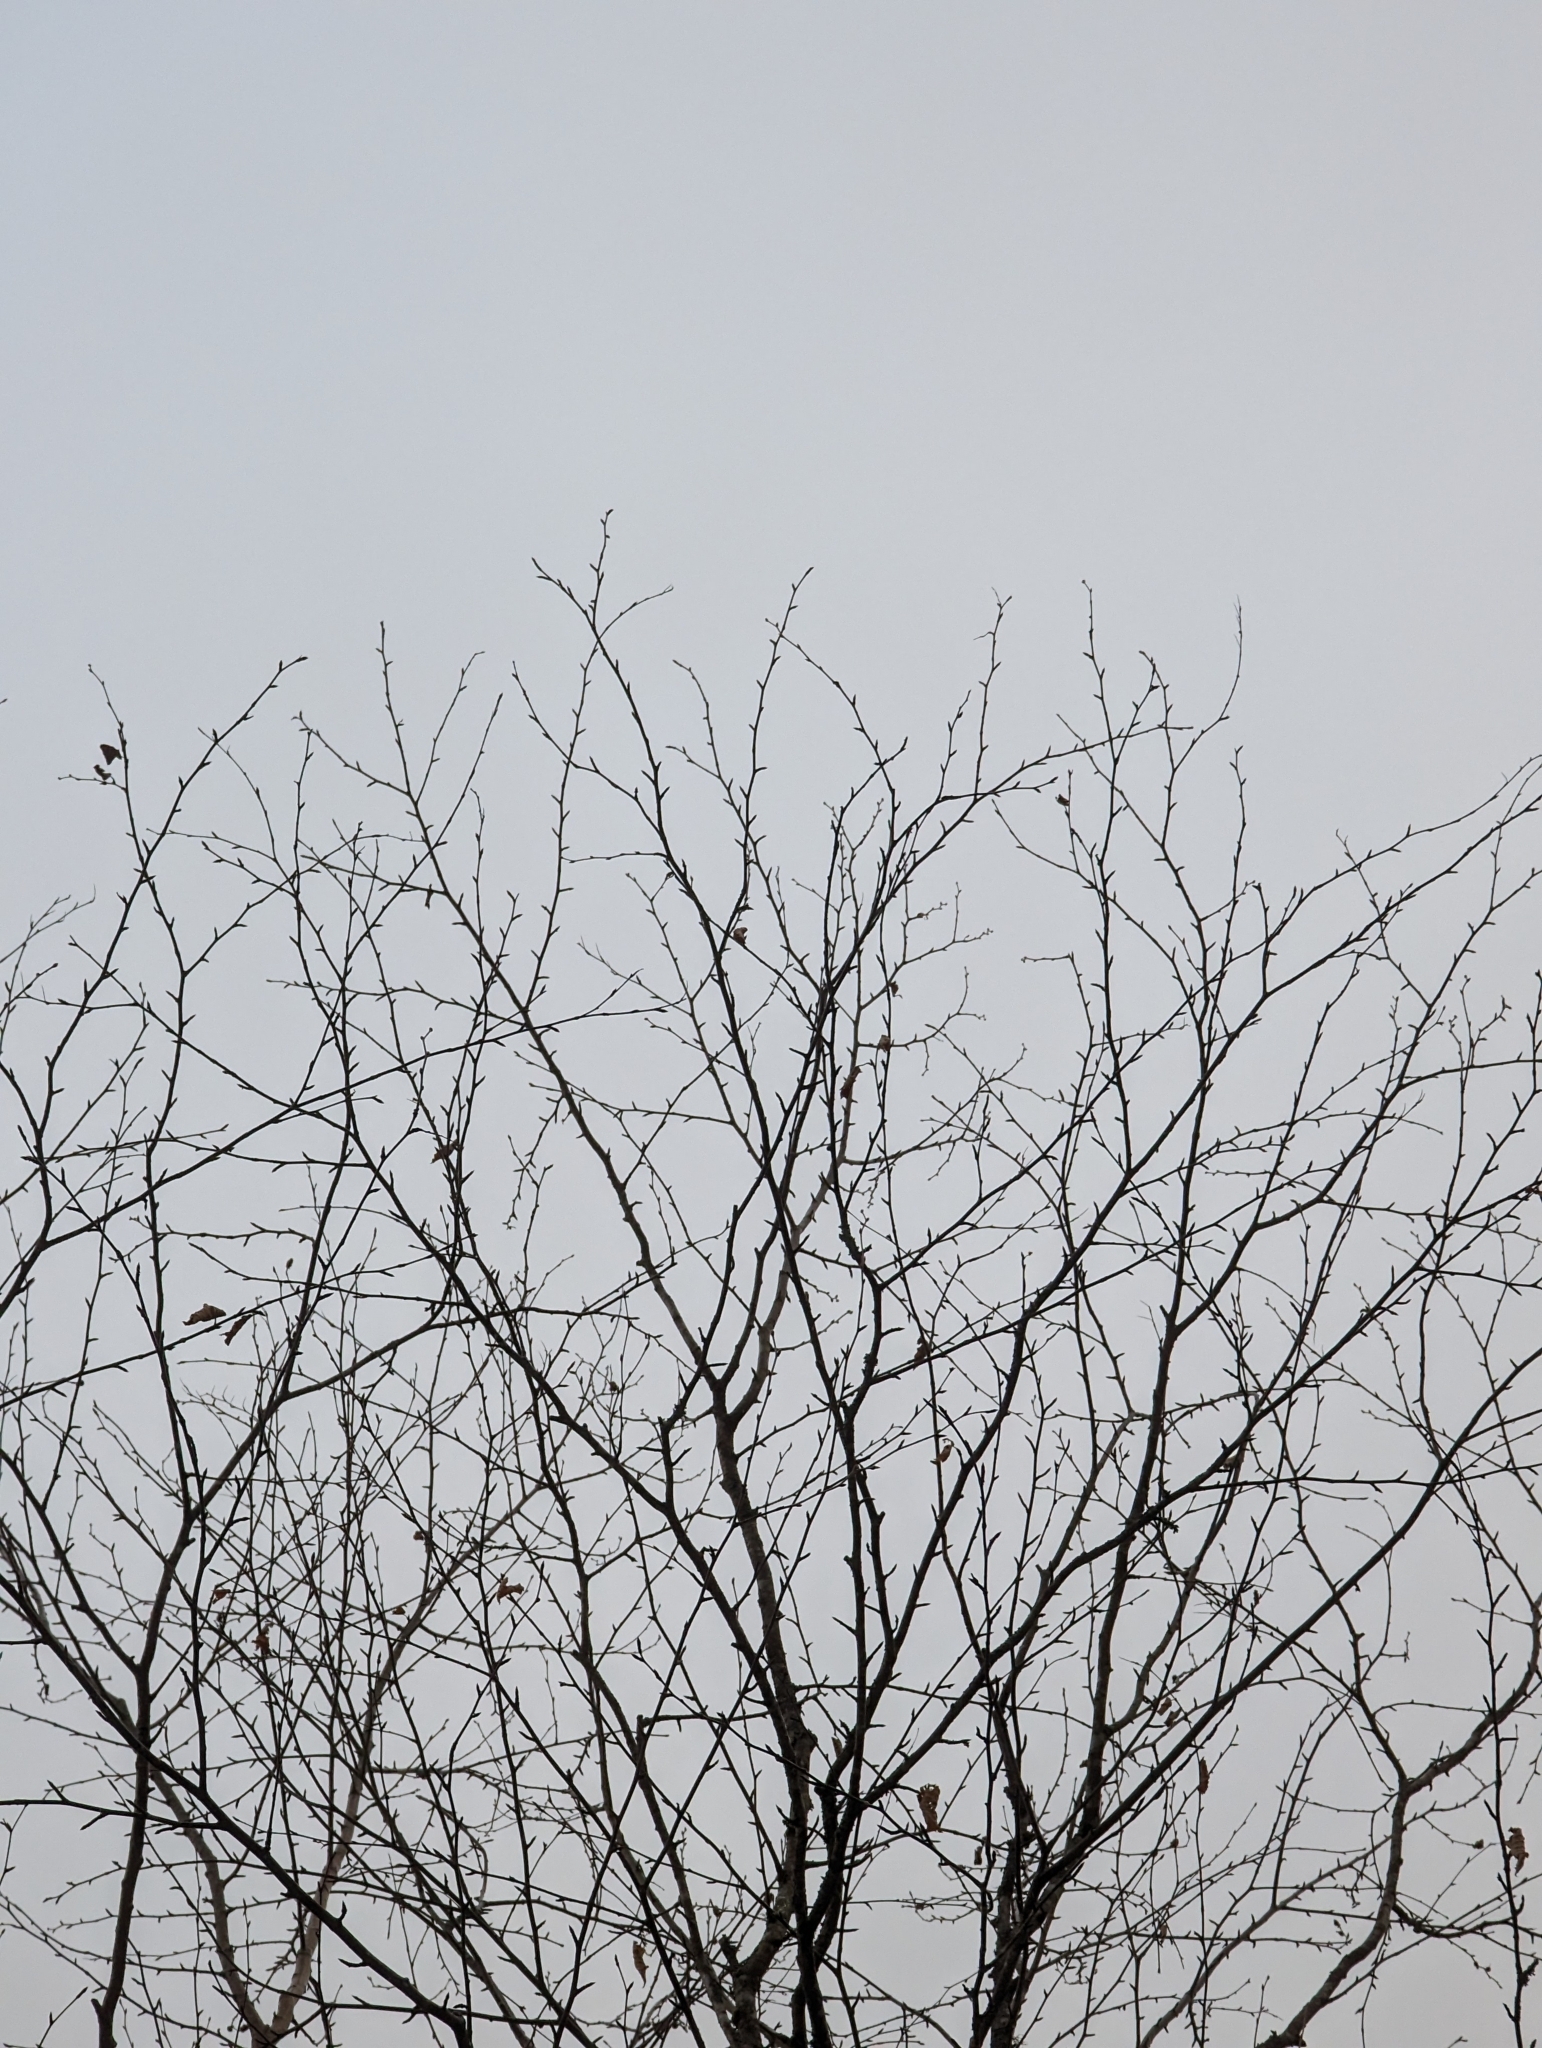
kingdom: Plantae
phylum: Tracheophyta
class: Magnoliopsida
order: Fagales
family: Betulaceae
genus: Betula
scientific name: Betula alleghaniensis
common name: Yellow birch
